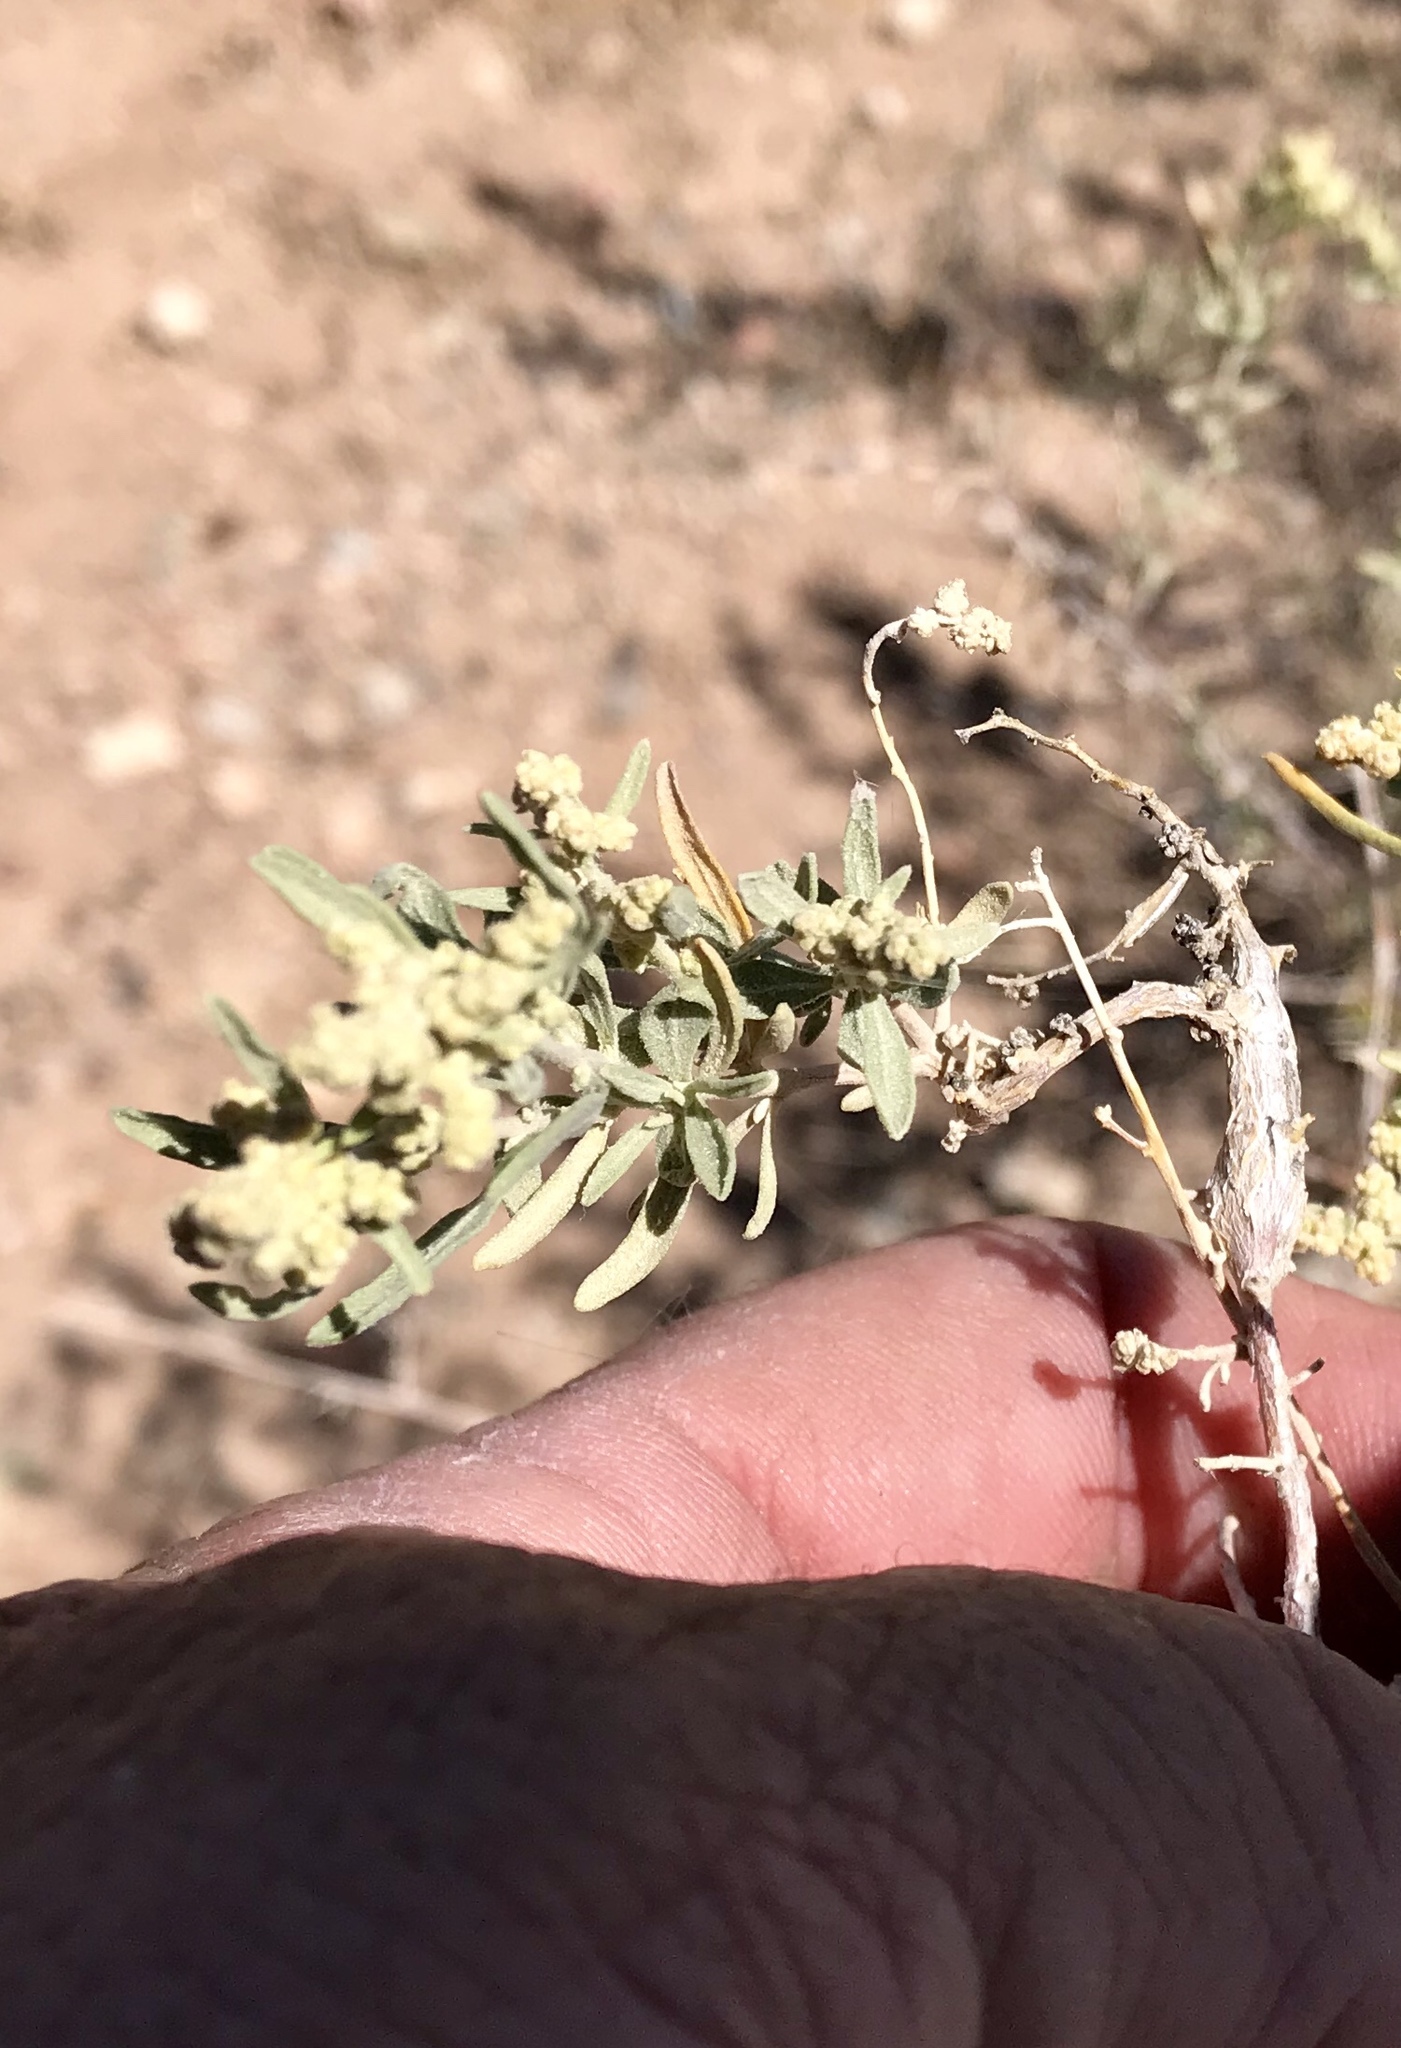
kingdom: Plantae
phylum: Tracheophyta
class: Magnoliopsida
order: Caryophyllales
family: Amaranthaceae
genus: Atriplex
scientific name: Atriplex canescens
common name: Four-wing saltbush
